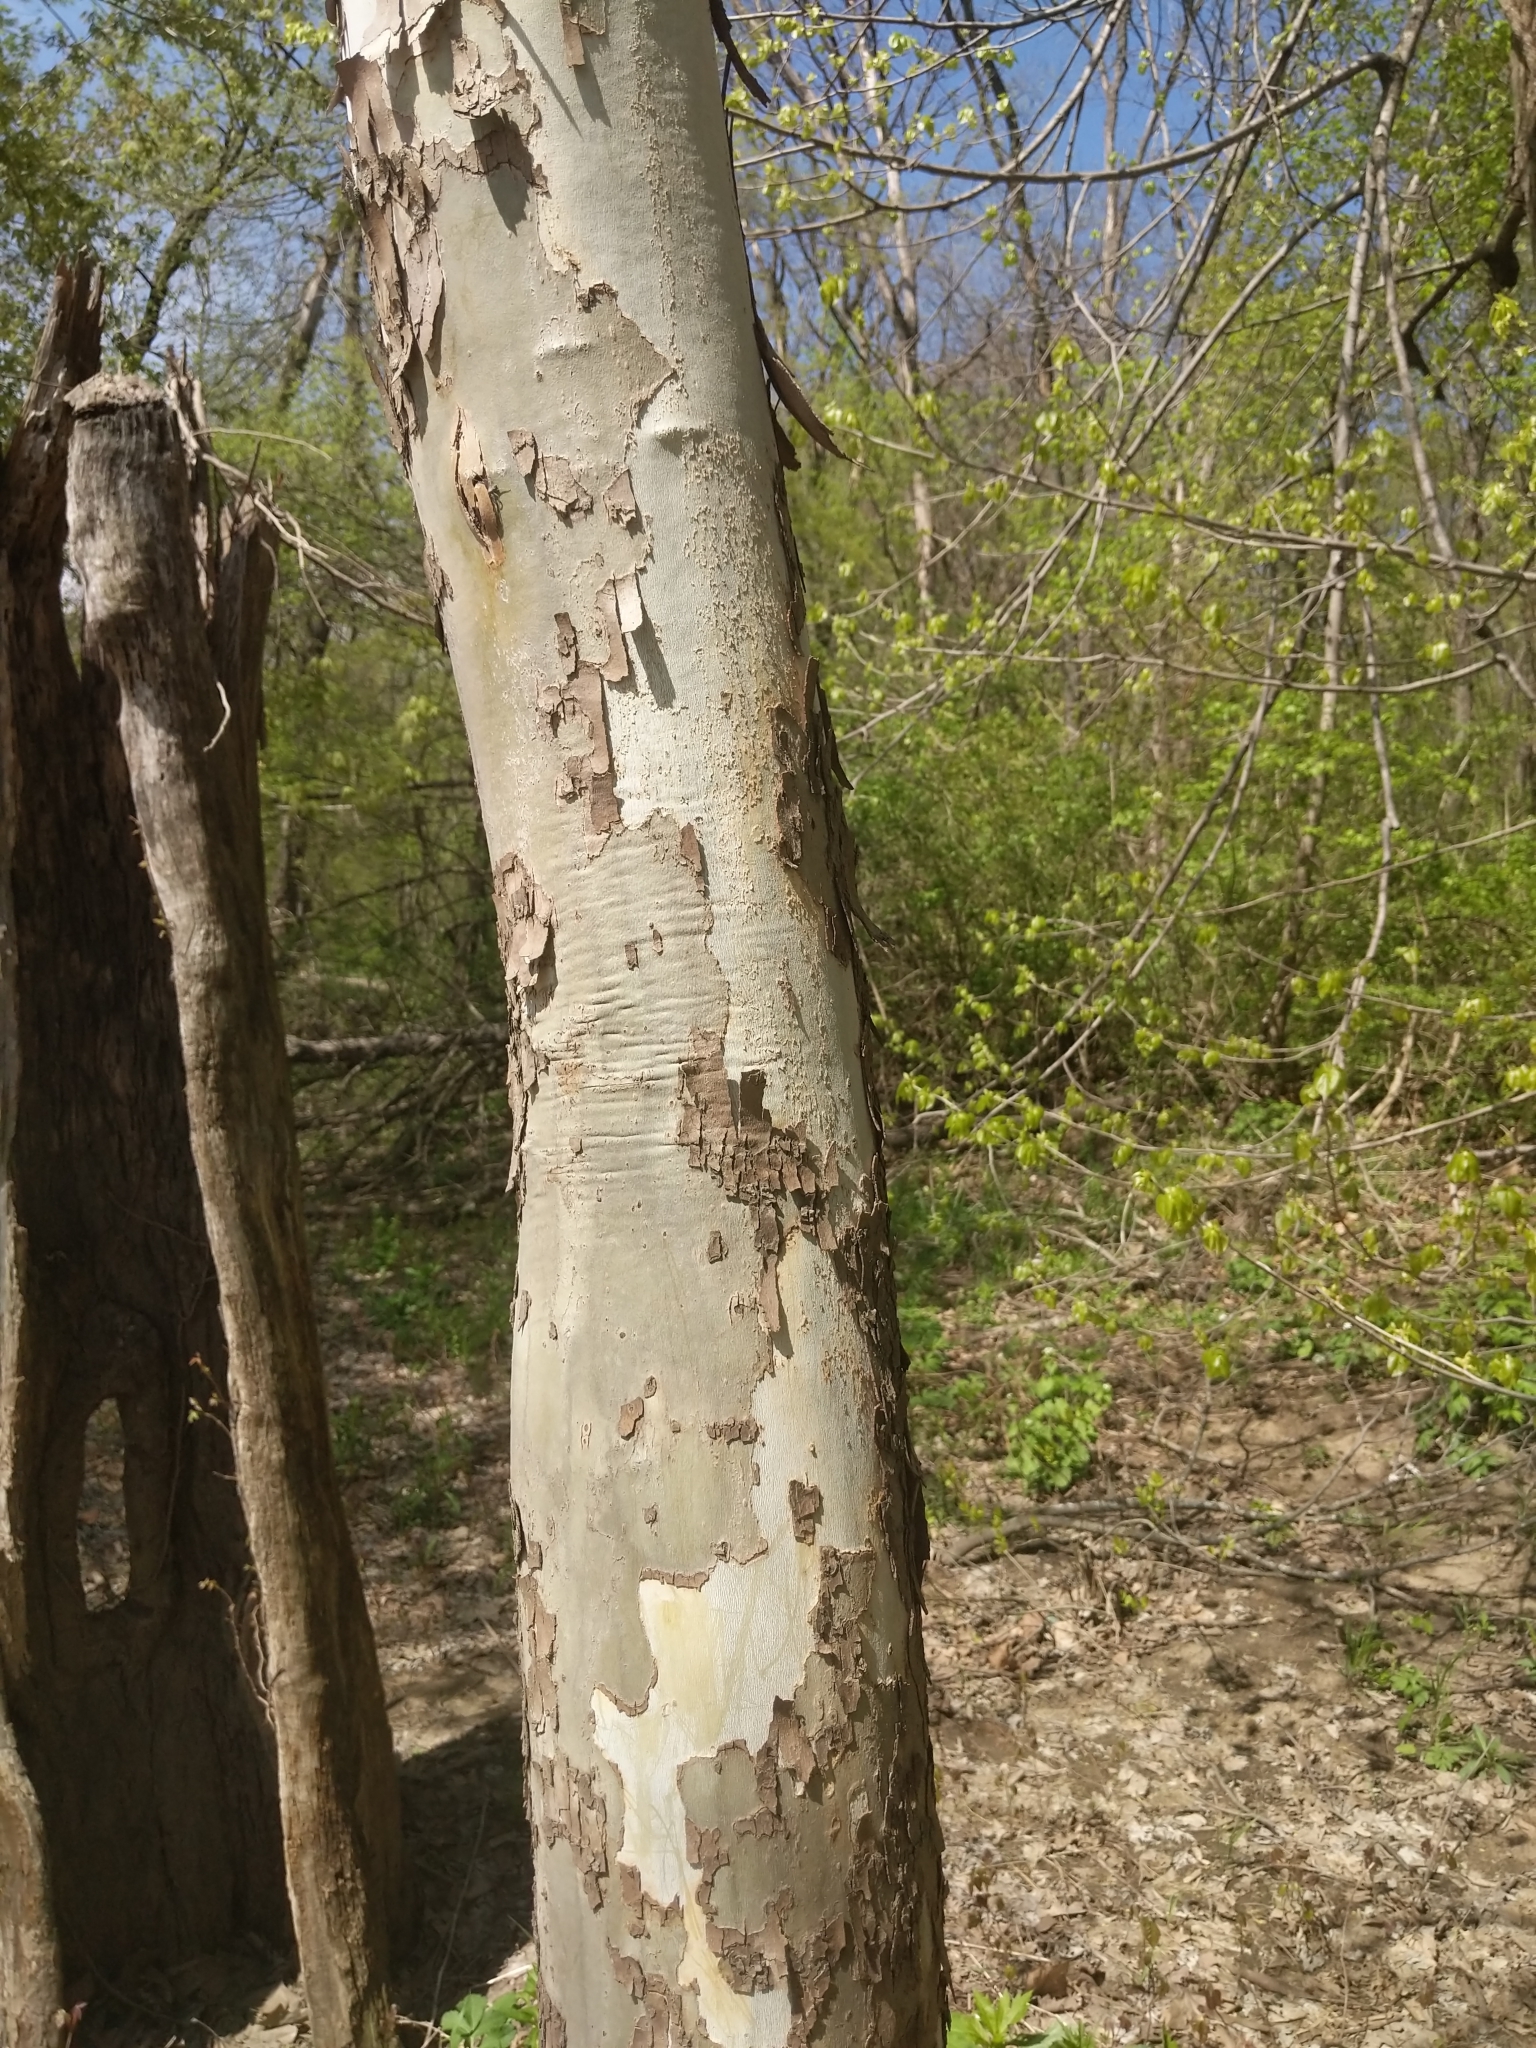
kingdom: Plantae
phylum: Tracheophyta
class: Magnoliopsida
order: Proteales
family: Platanaceae
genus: Platanus
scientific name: Platanus occidentalis
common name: American sycamore
